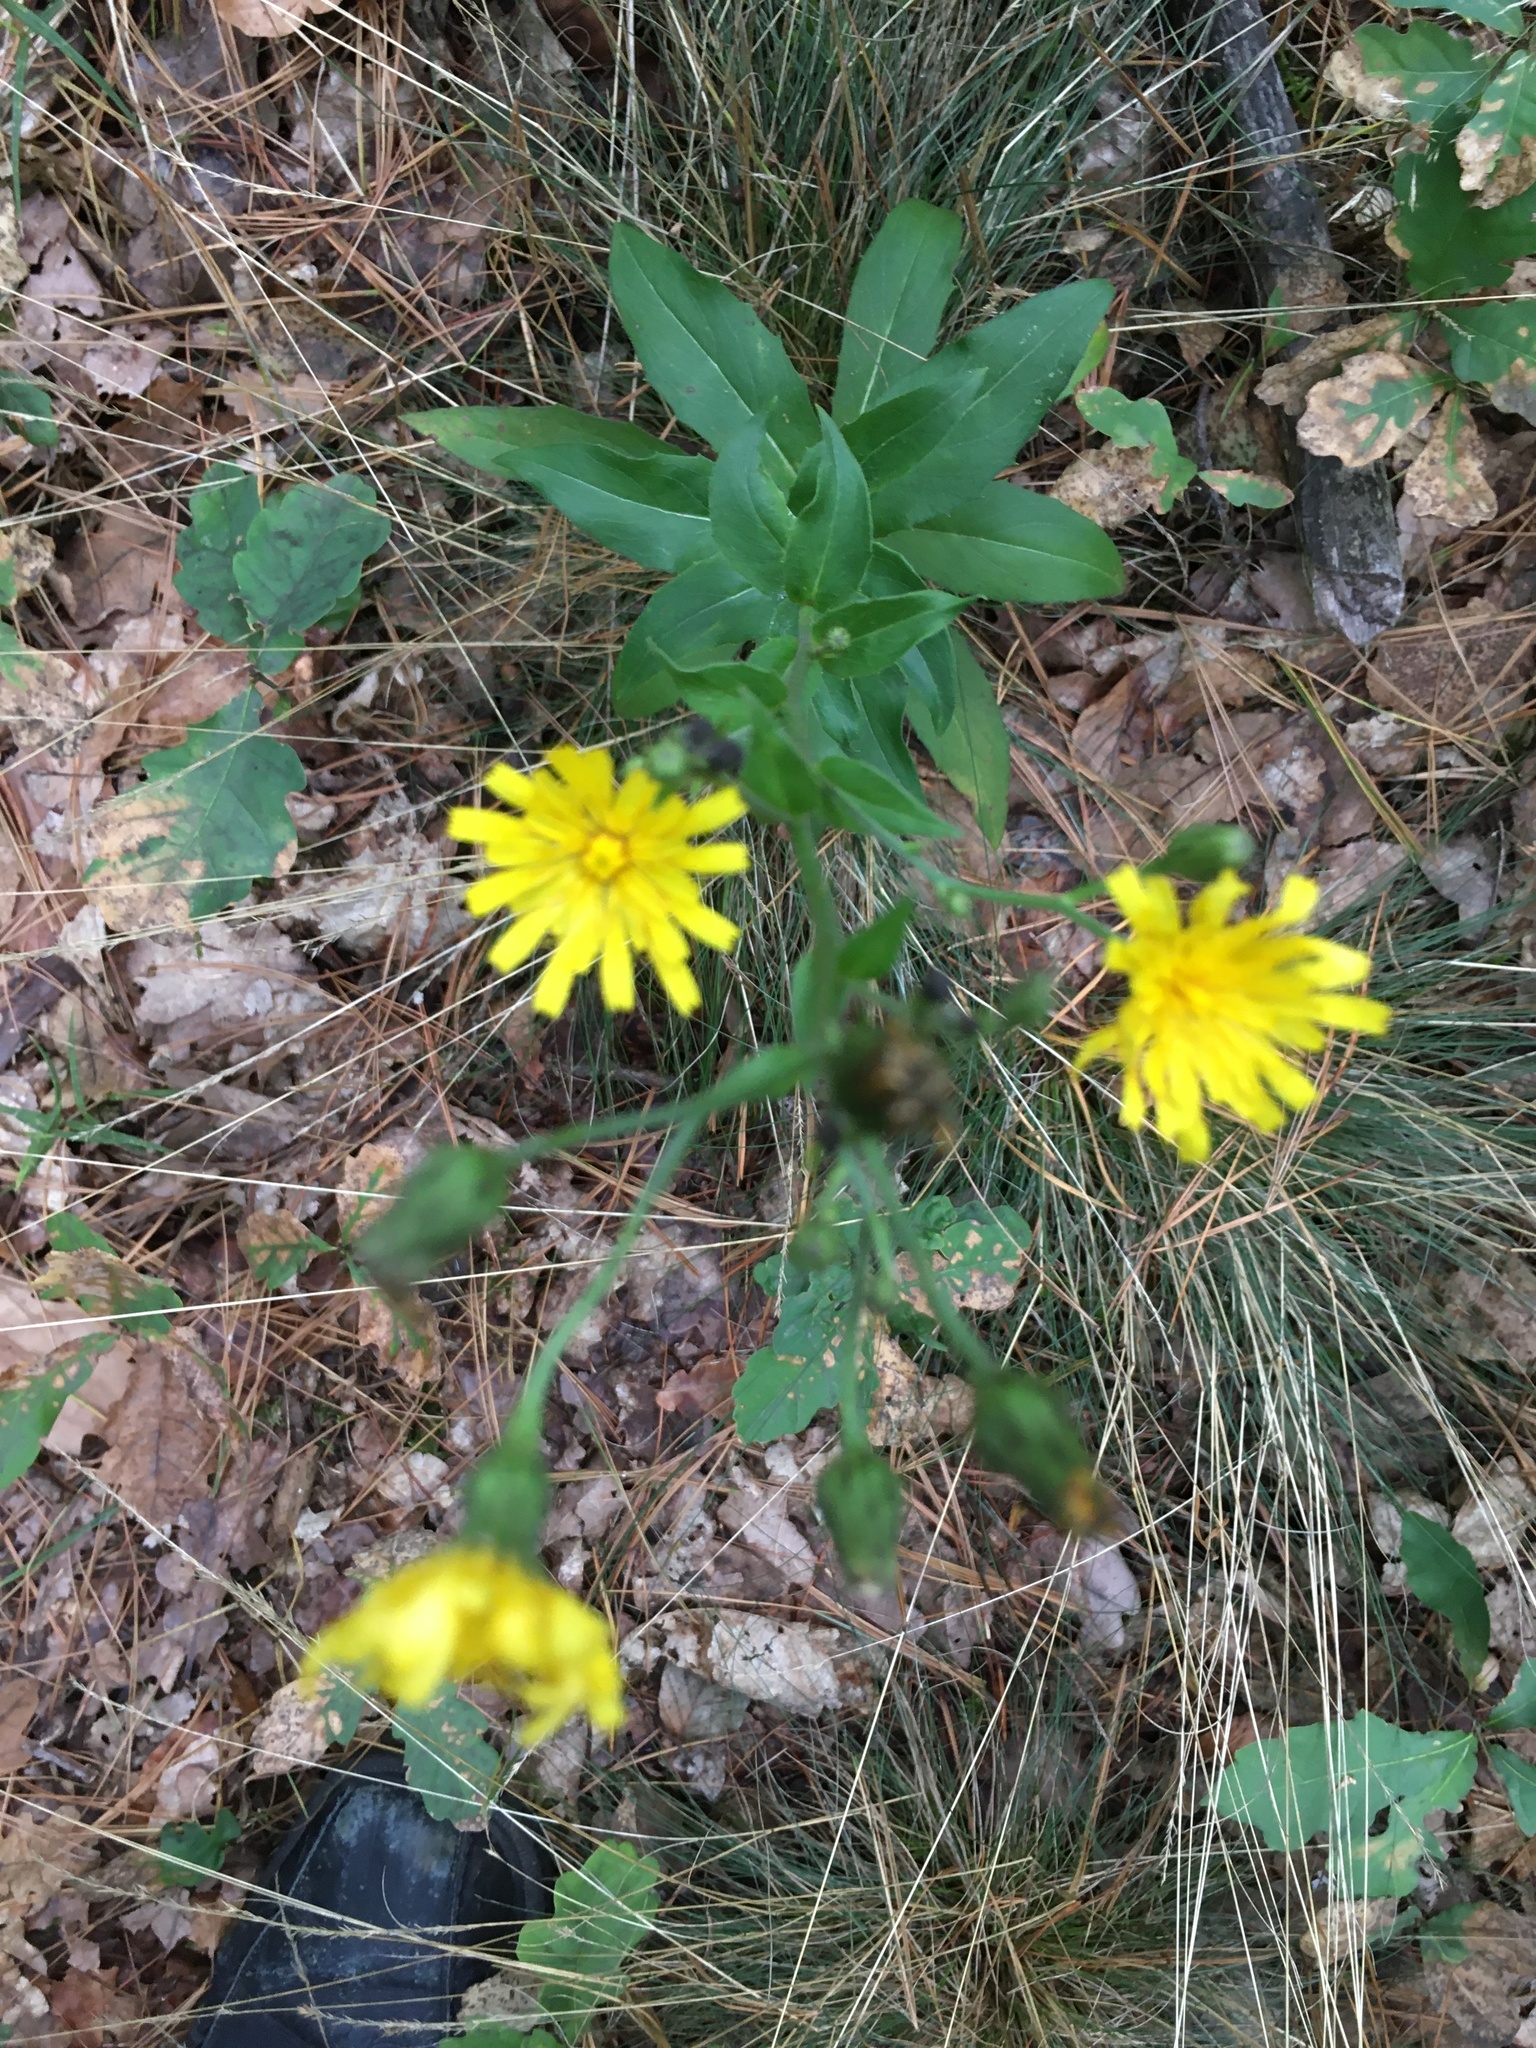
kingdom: Plantae
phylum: Tracheophyta
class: Magnoliopsida
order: Asterales
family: Asteraceae
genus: Hieracium
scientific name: Hieracium sabaudum
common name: New england hawkweed
